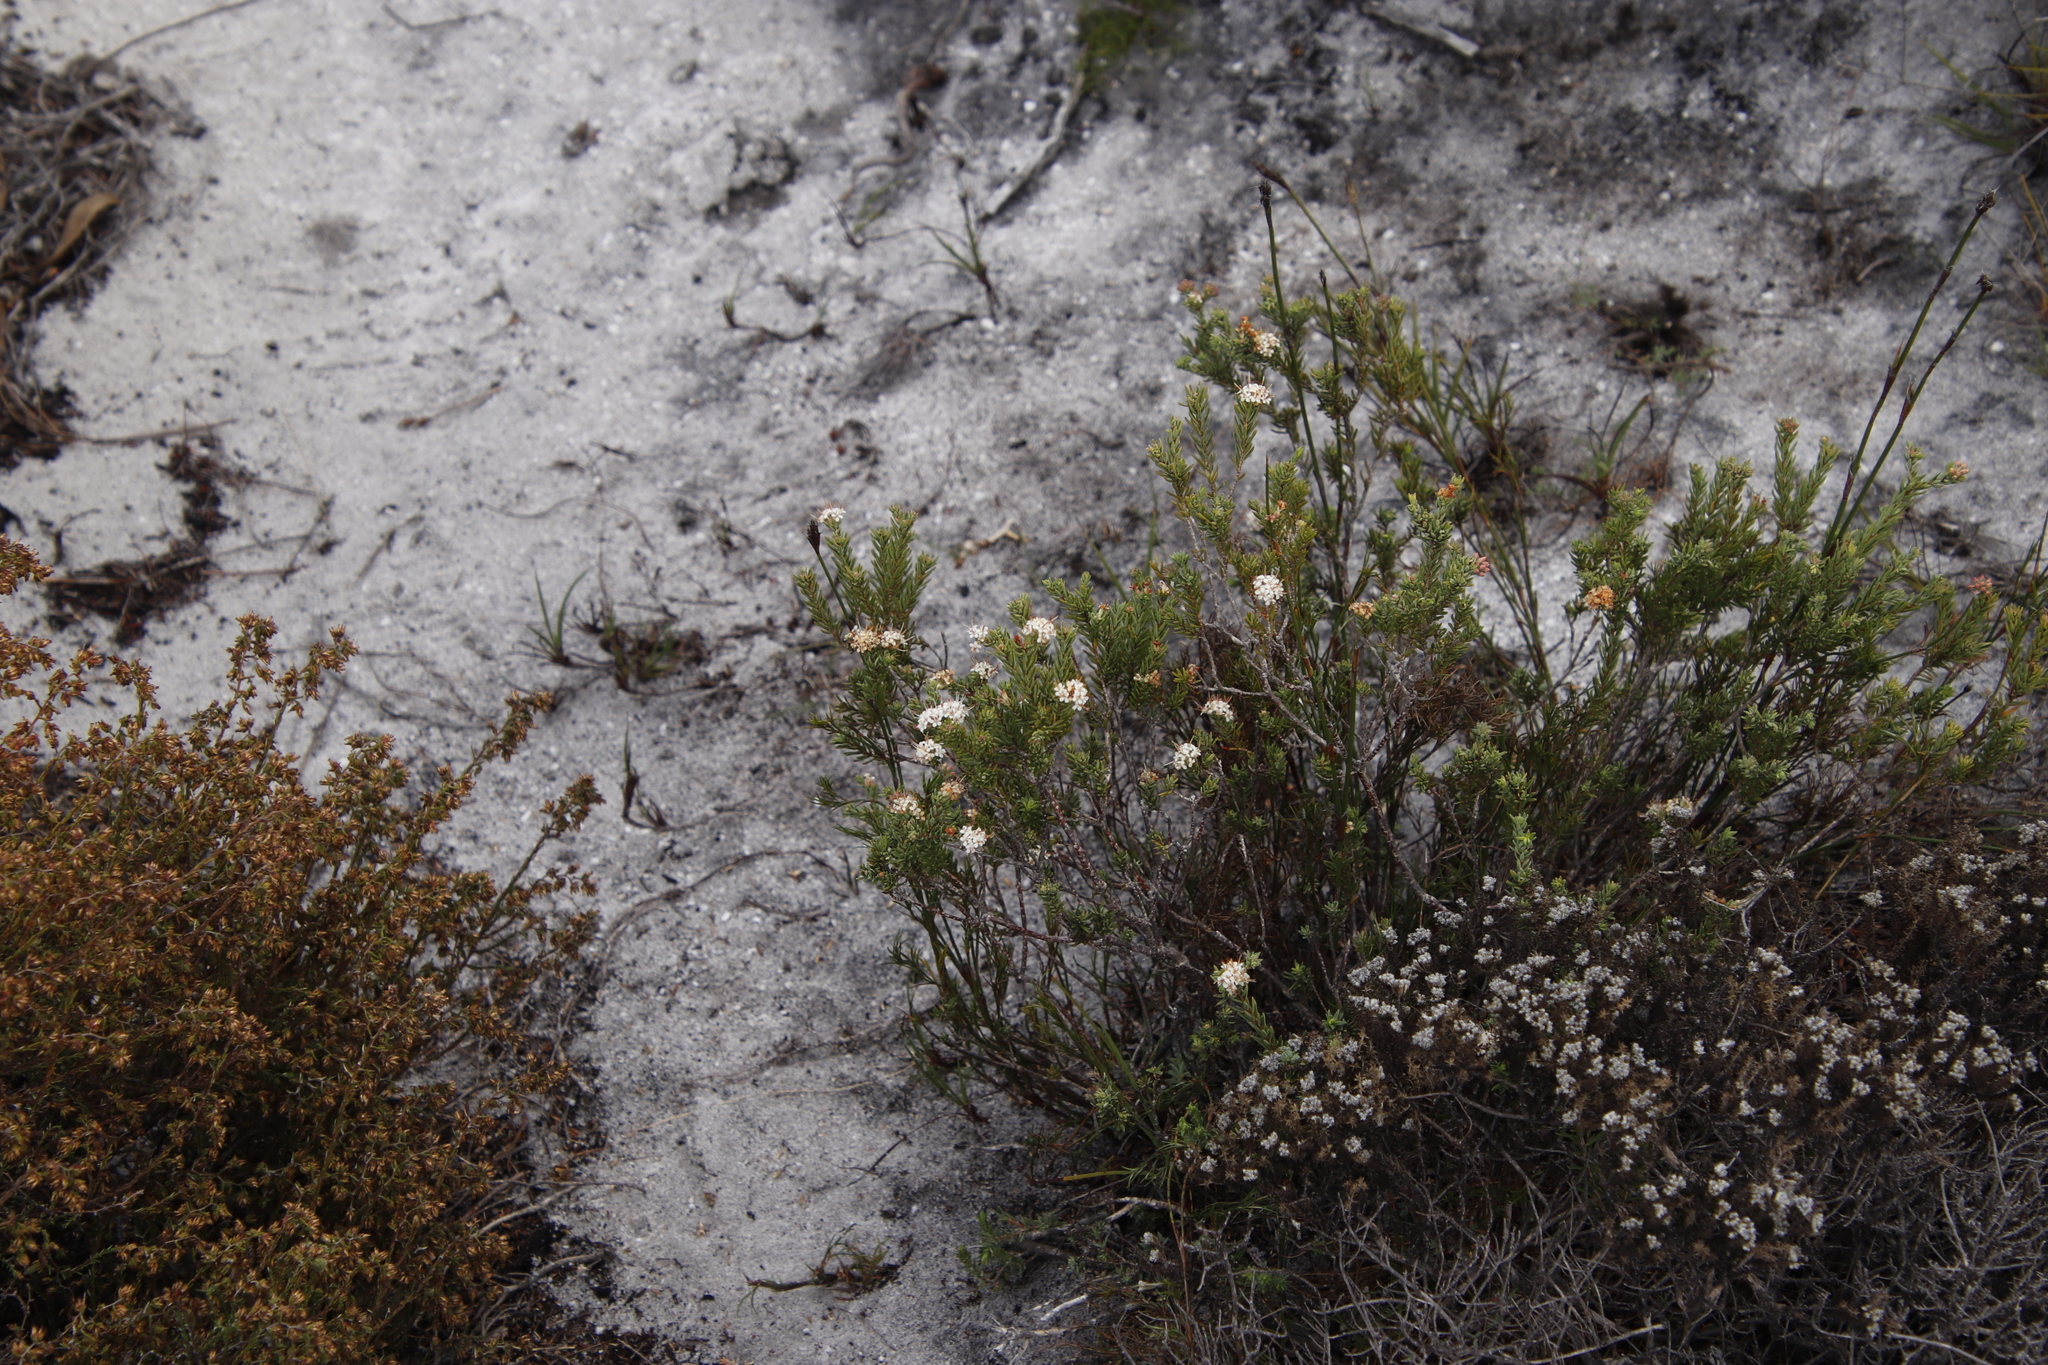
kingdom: Plantae
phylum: Tracheophyta
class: Magnoliopsida
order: Sapindales
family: Rutaceae
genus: Macrostylis
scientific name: Macrostylis villosa
